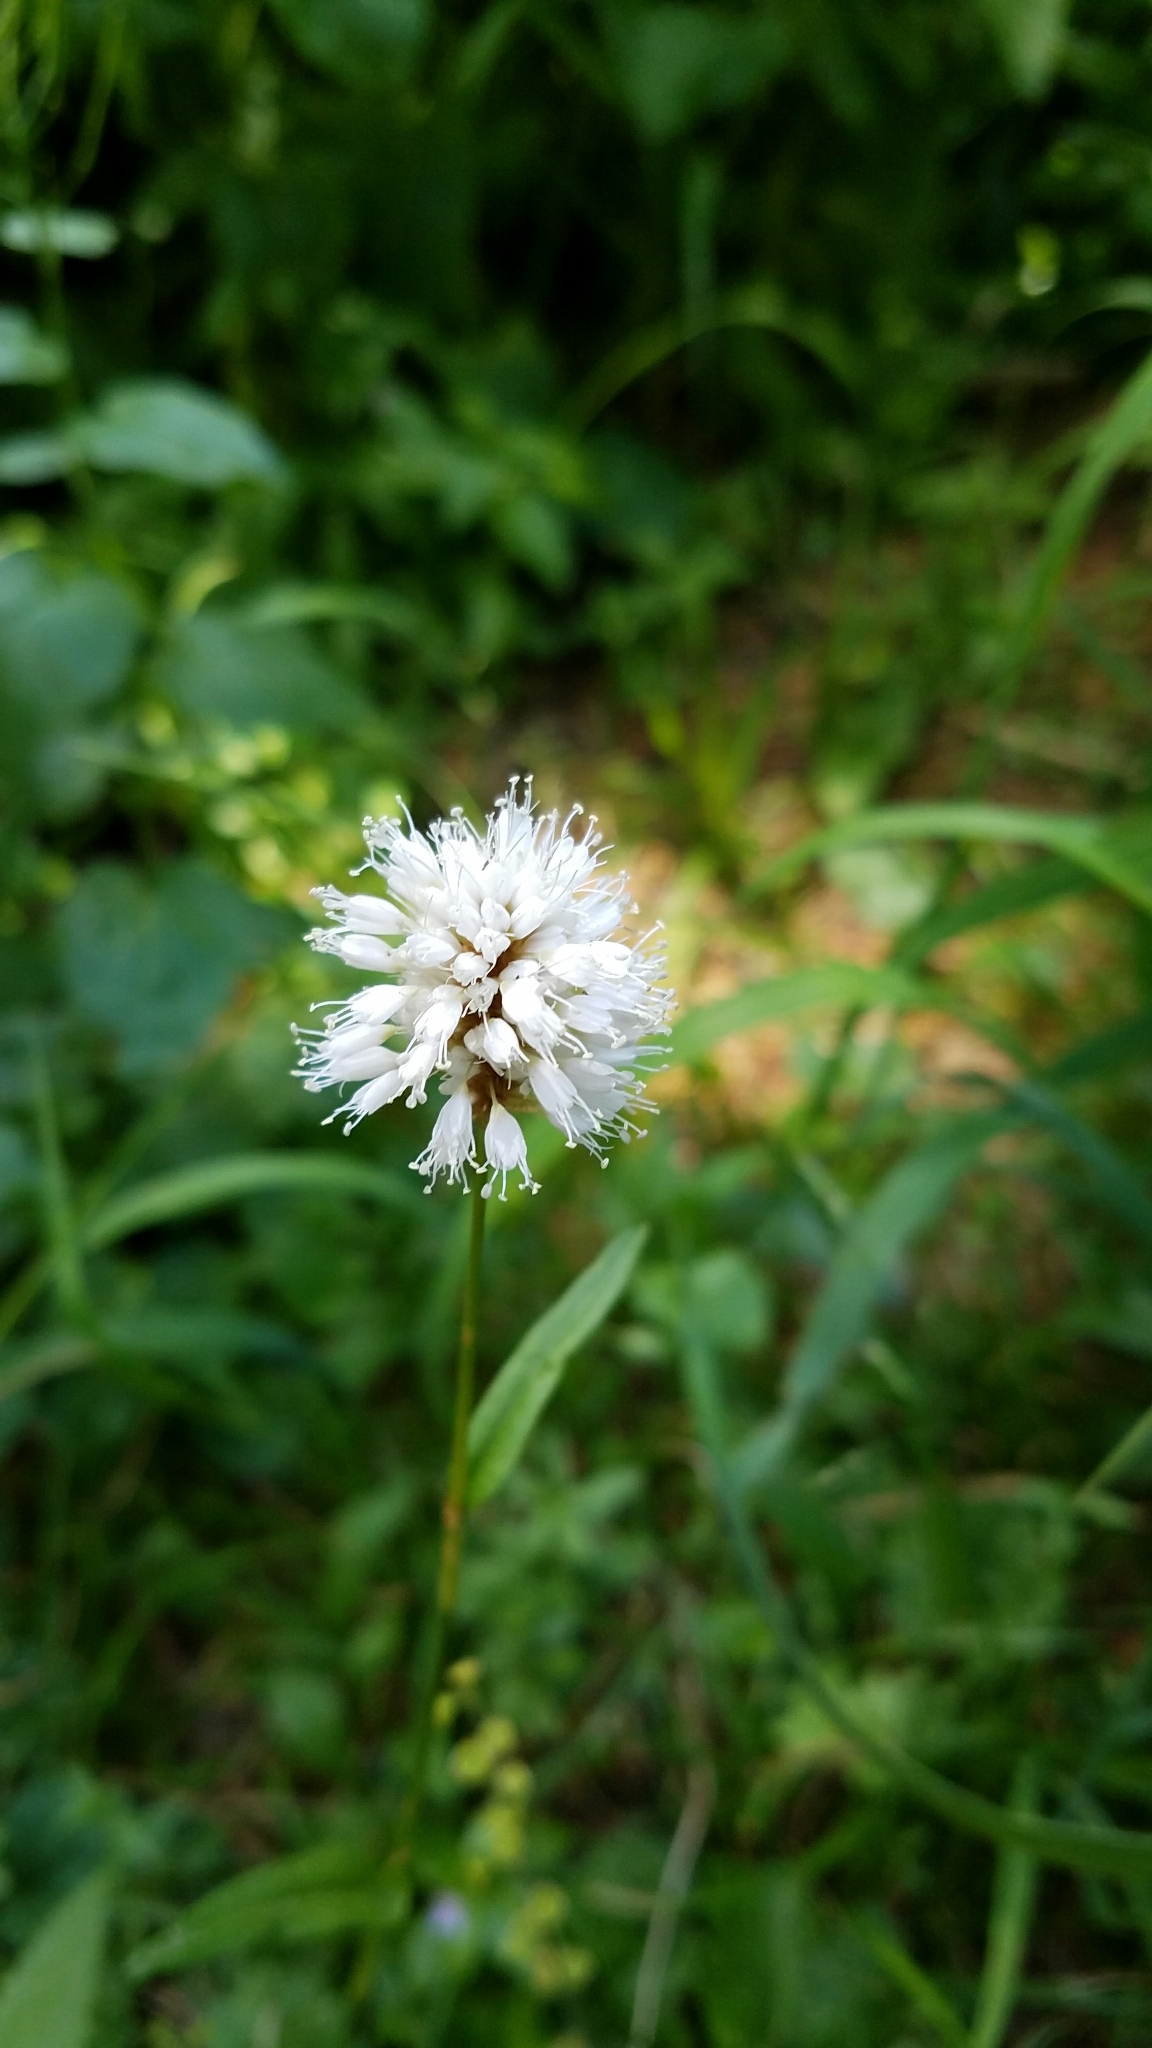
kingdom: Plantae
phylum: Tracheophyta
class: Magnoliopsida
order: Caryophyllales
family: Polygonaceae
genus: Bistorta
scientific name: Bistorta bistortoides
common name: American bistort
